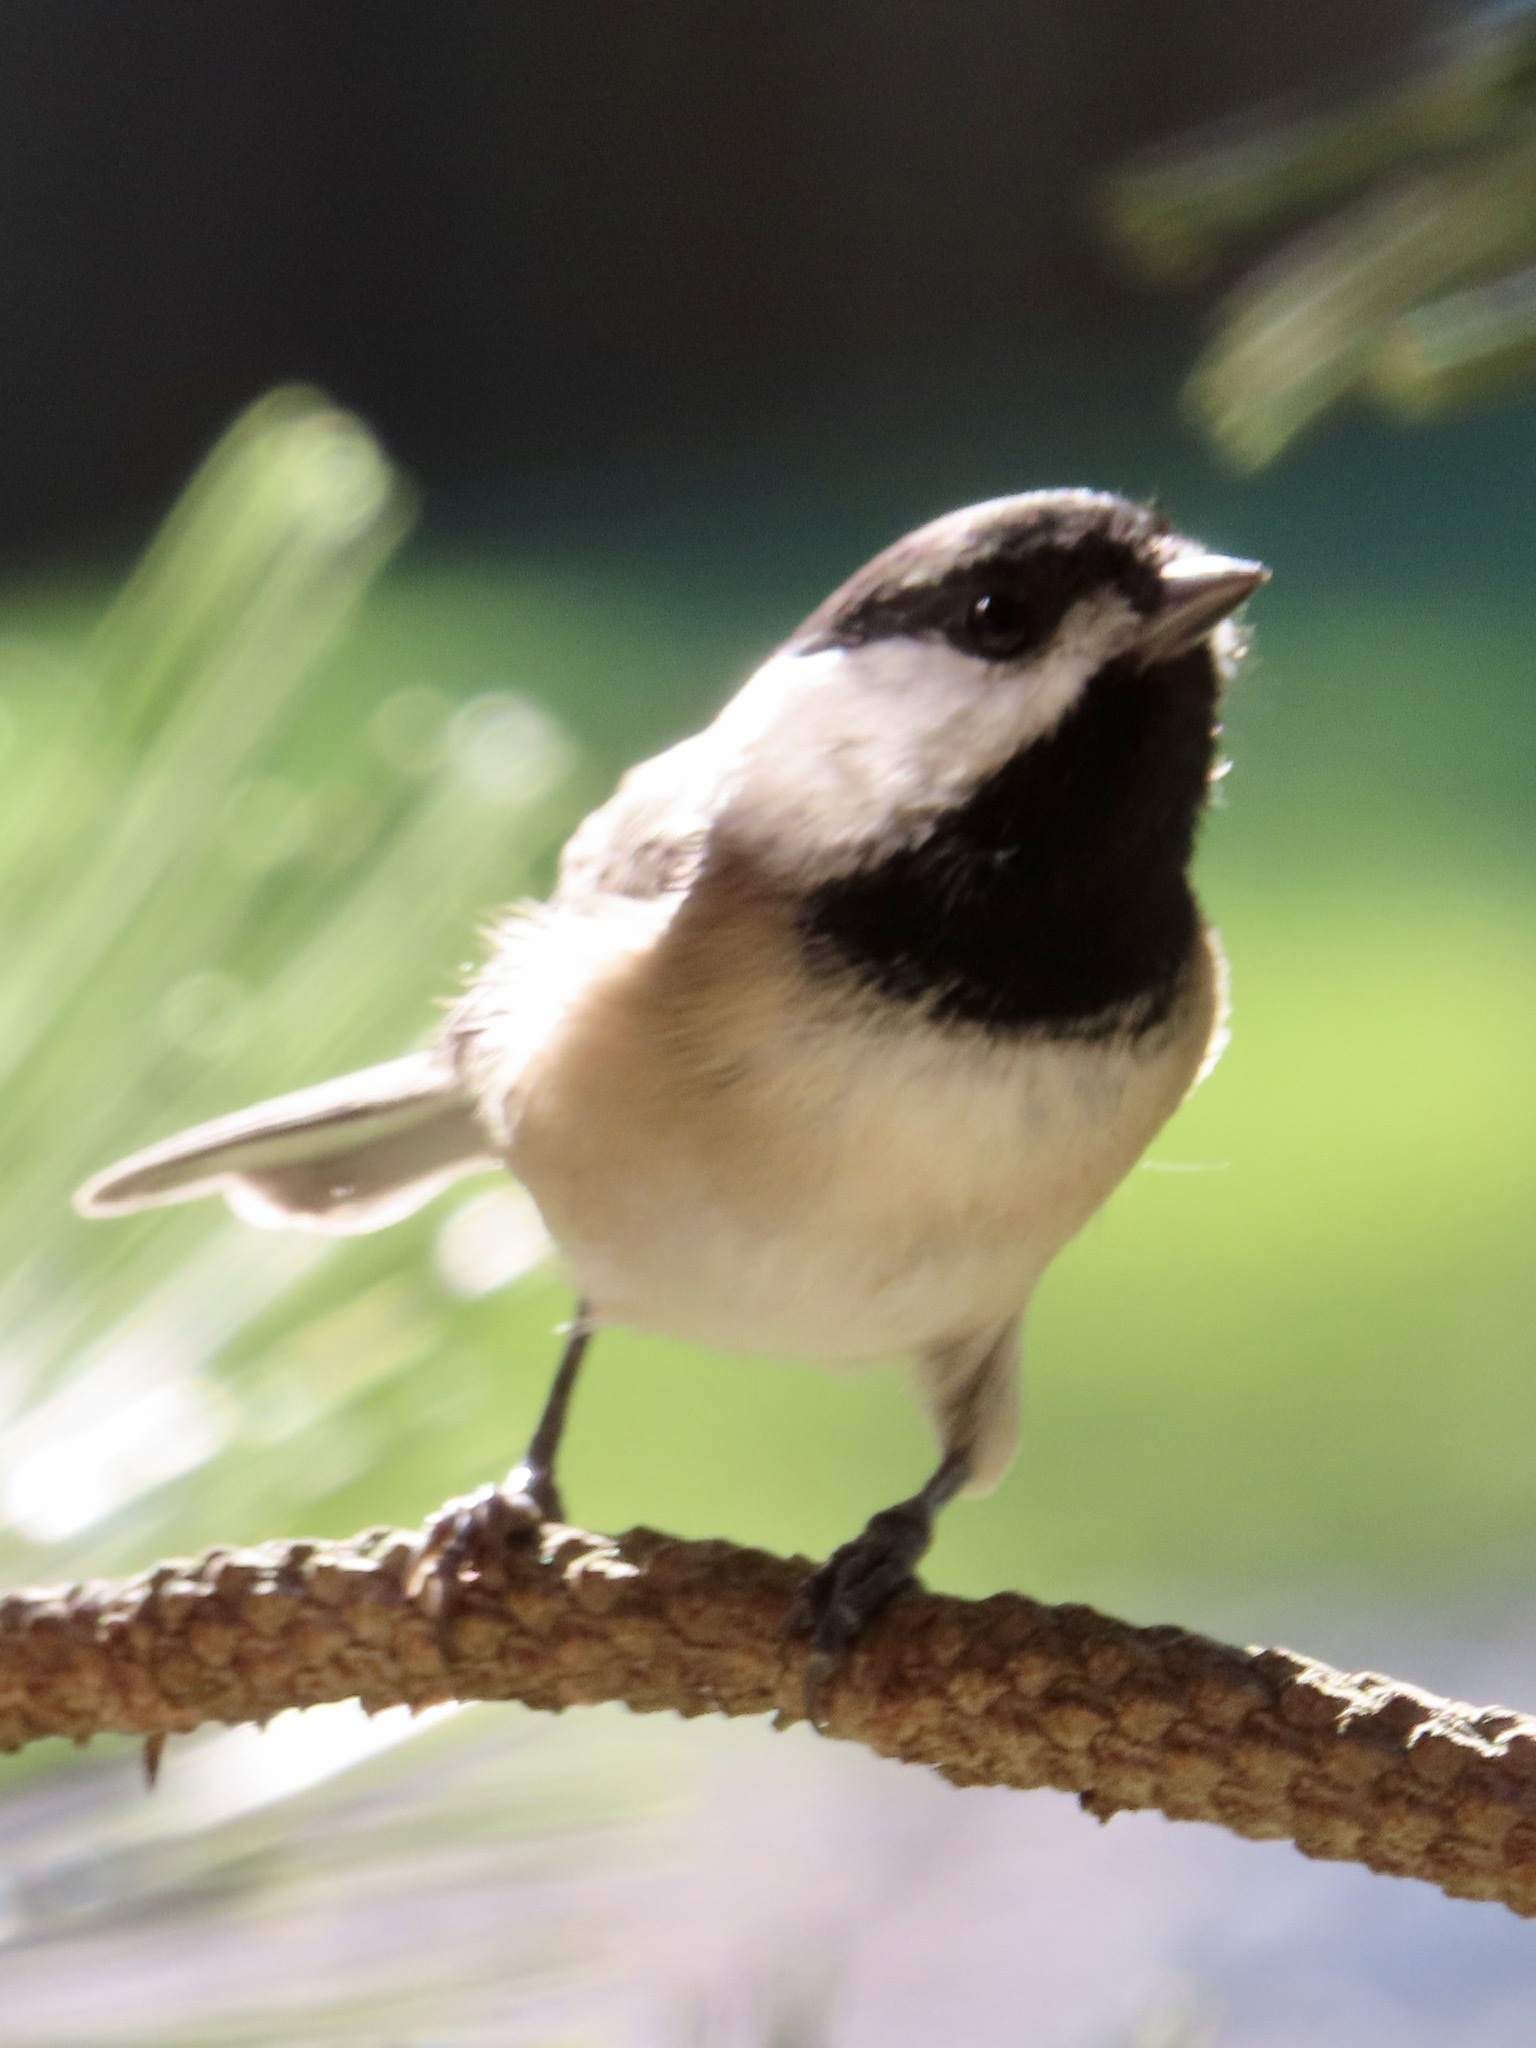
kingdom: Animalia
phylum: Chordata
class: Aves
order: Passeriformes
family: Paridae
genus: Poecile
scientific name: Poecile carolinensis
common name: Carolina chickadee
